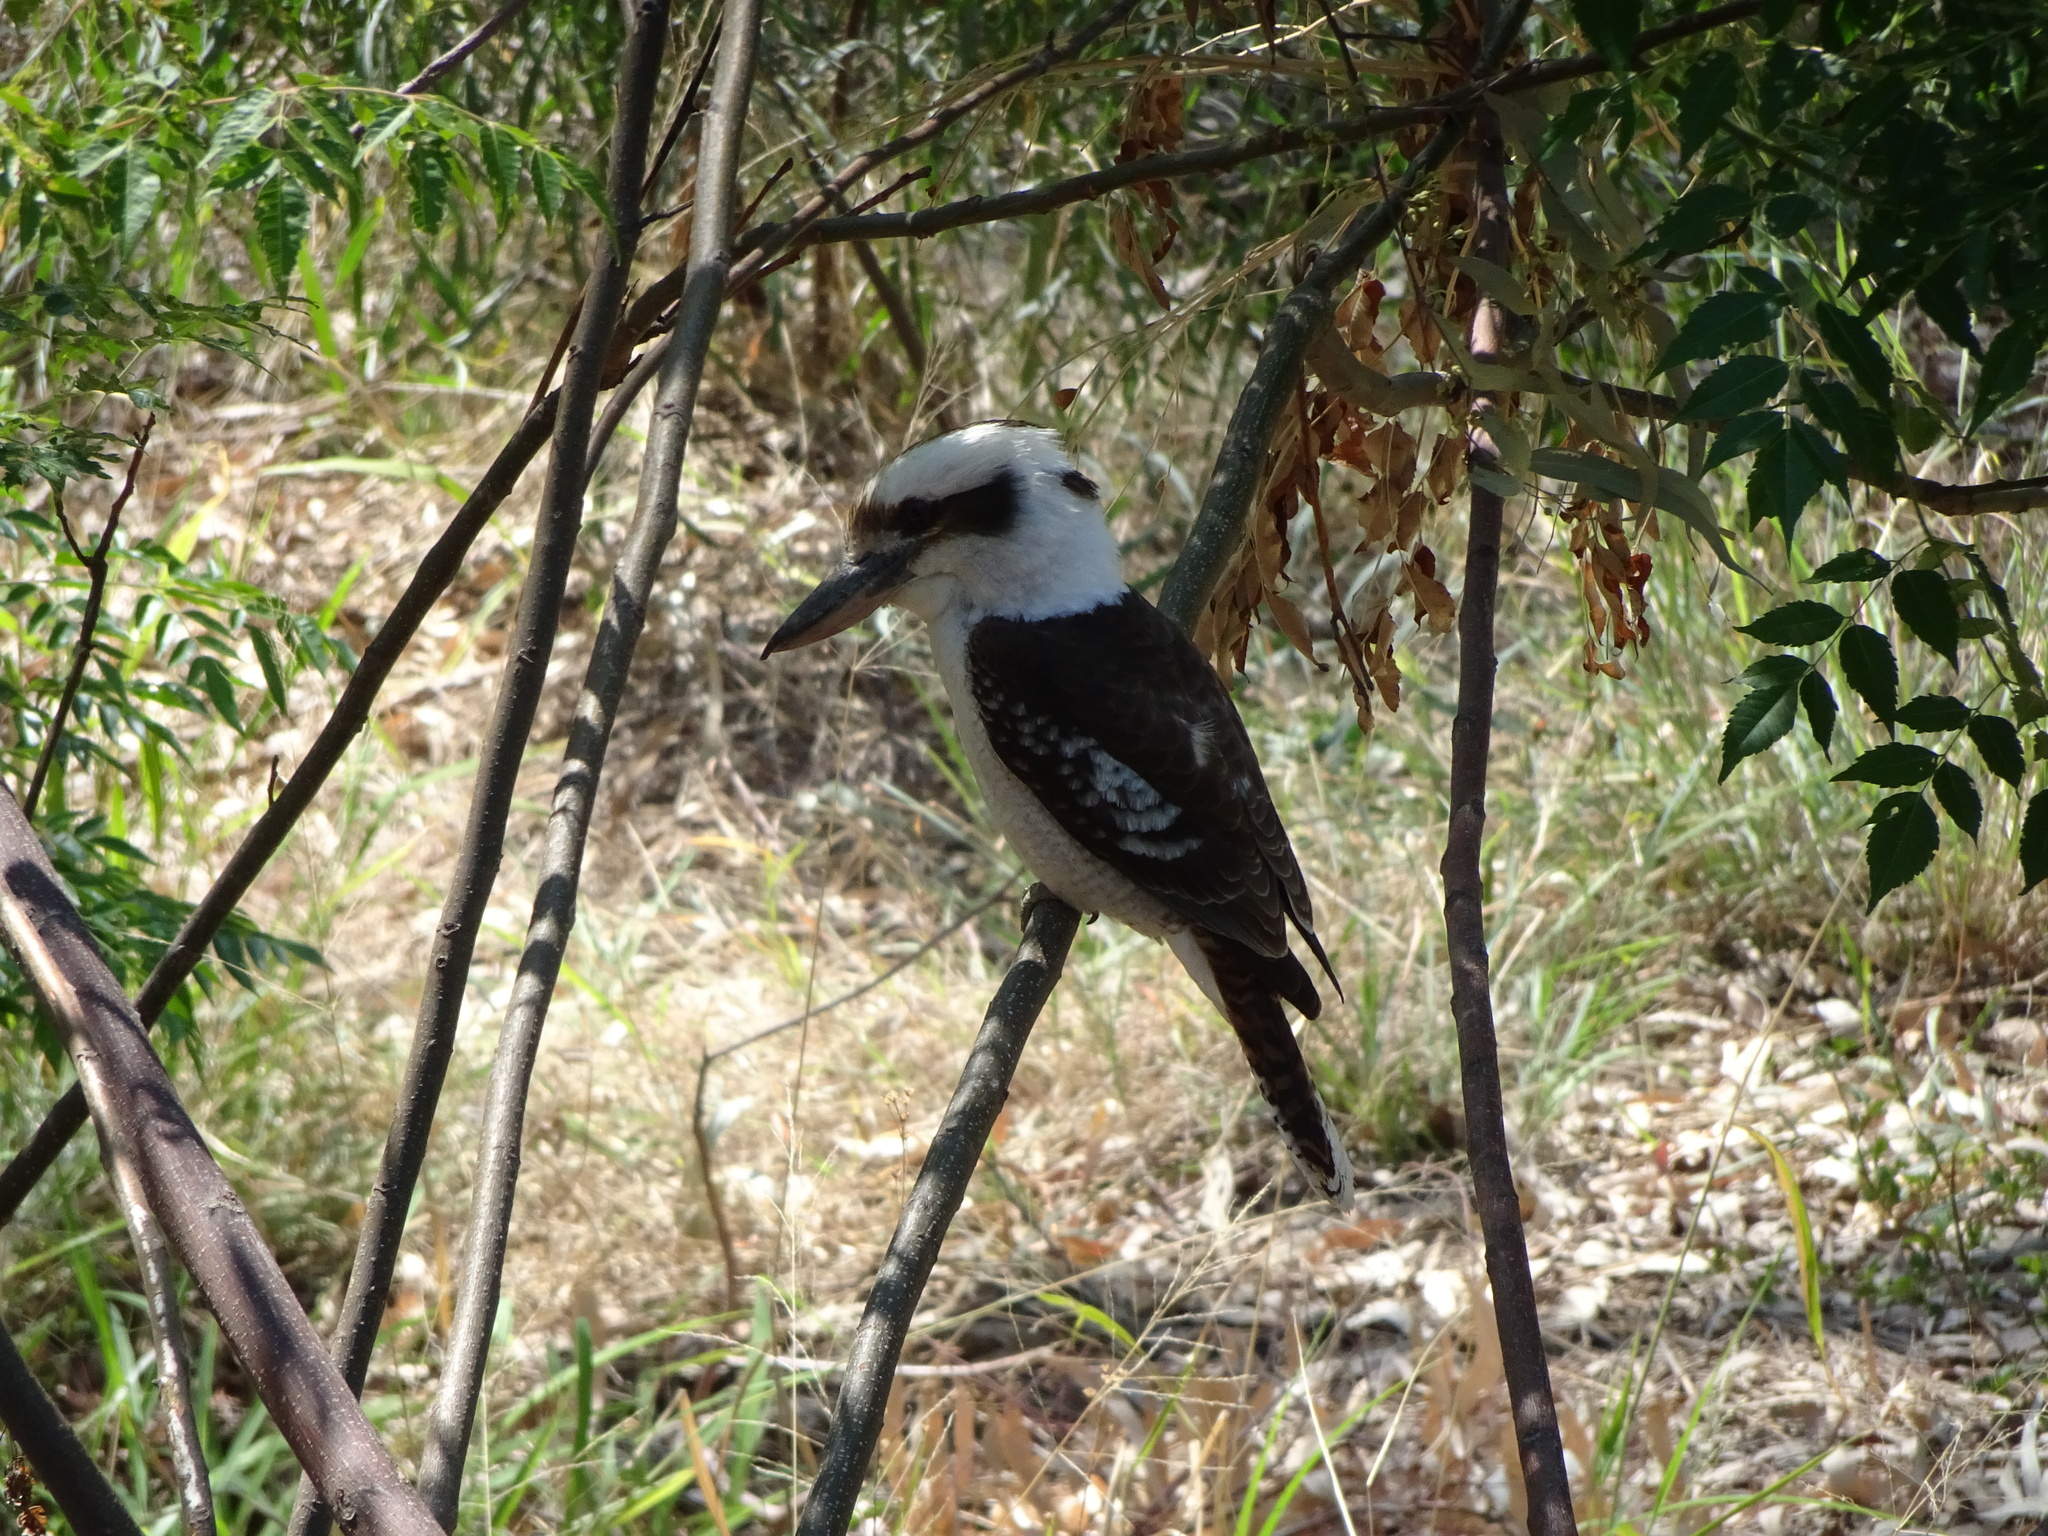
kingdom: Animalia
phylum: Chordata
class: Aves
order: Coraciiformes
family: Alcedinidae
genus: Dacelo
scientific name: Dacelo novaeguineae
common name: Laughing kookaburra
